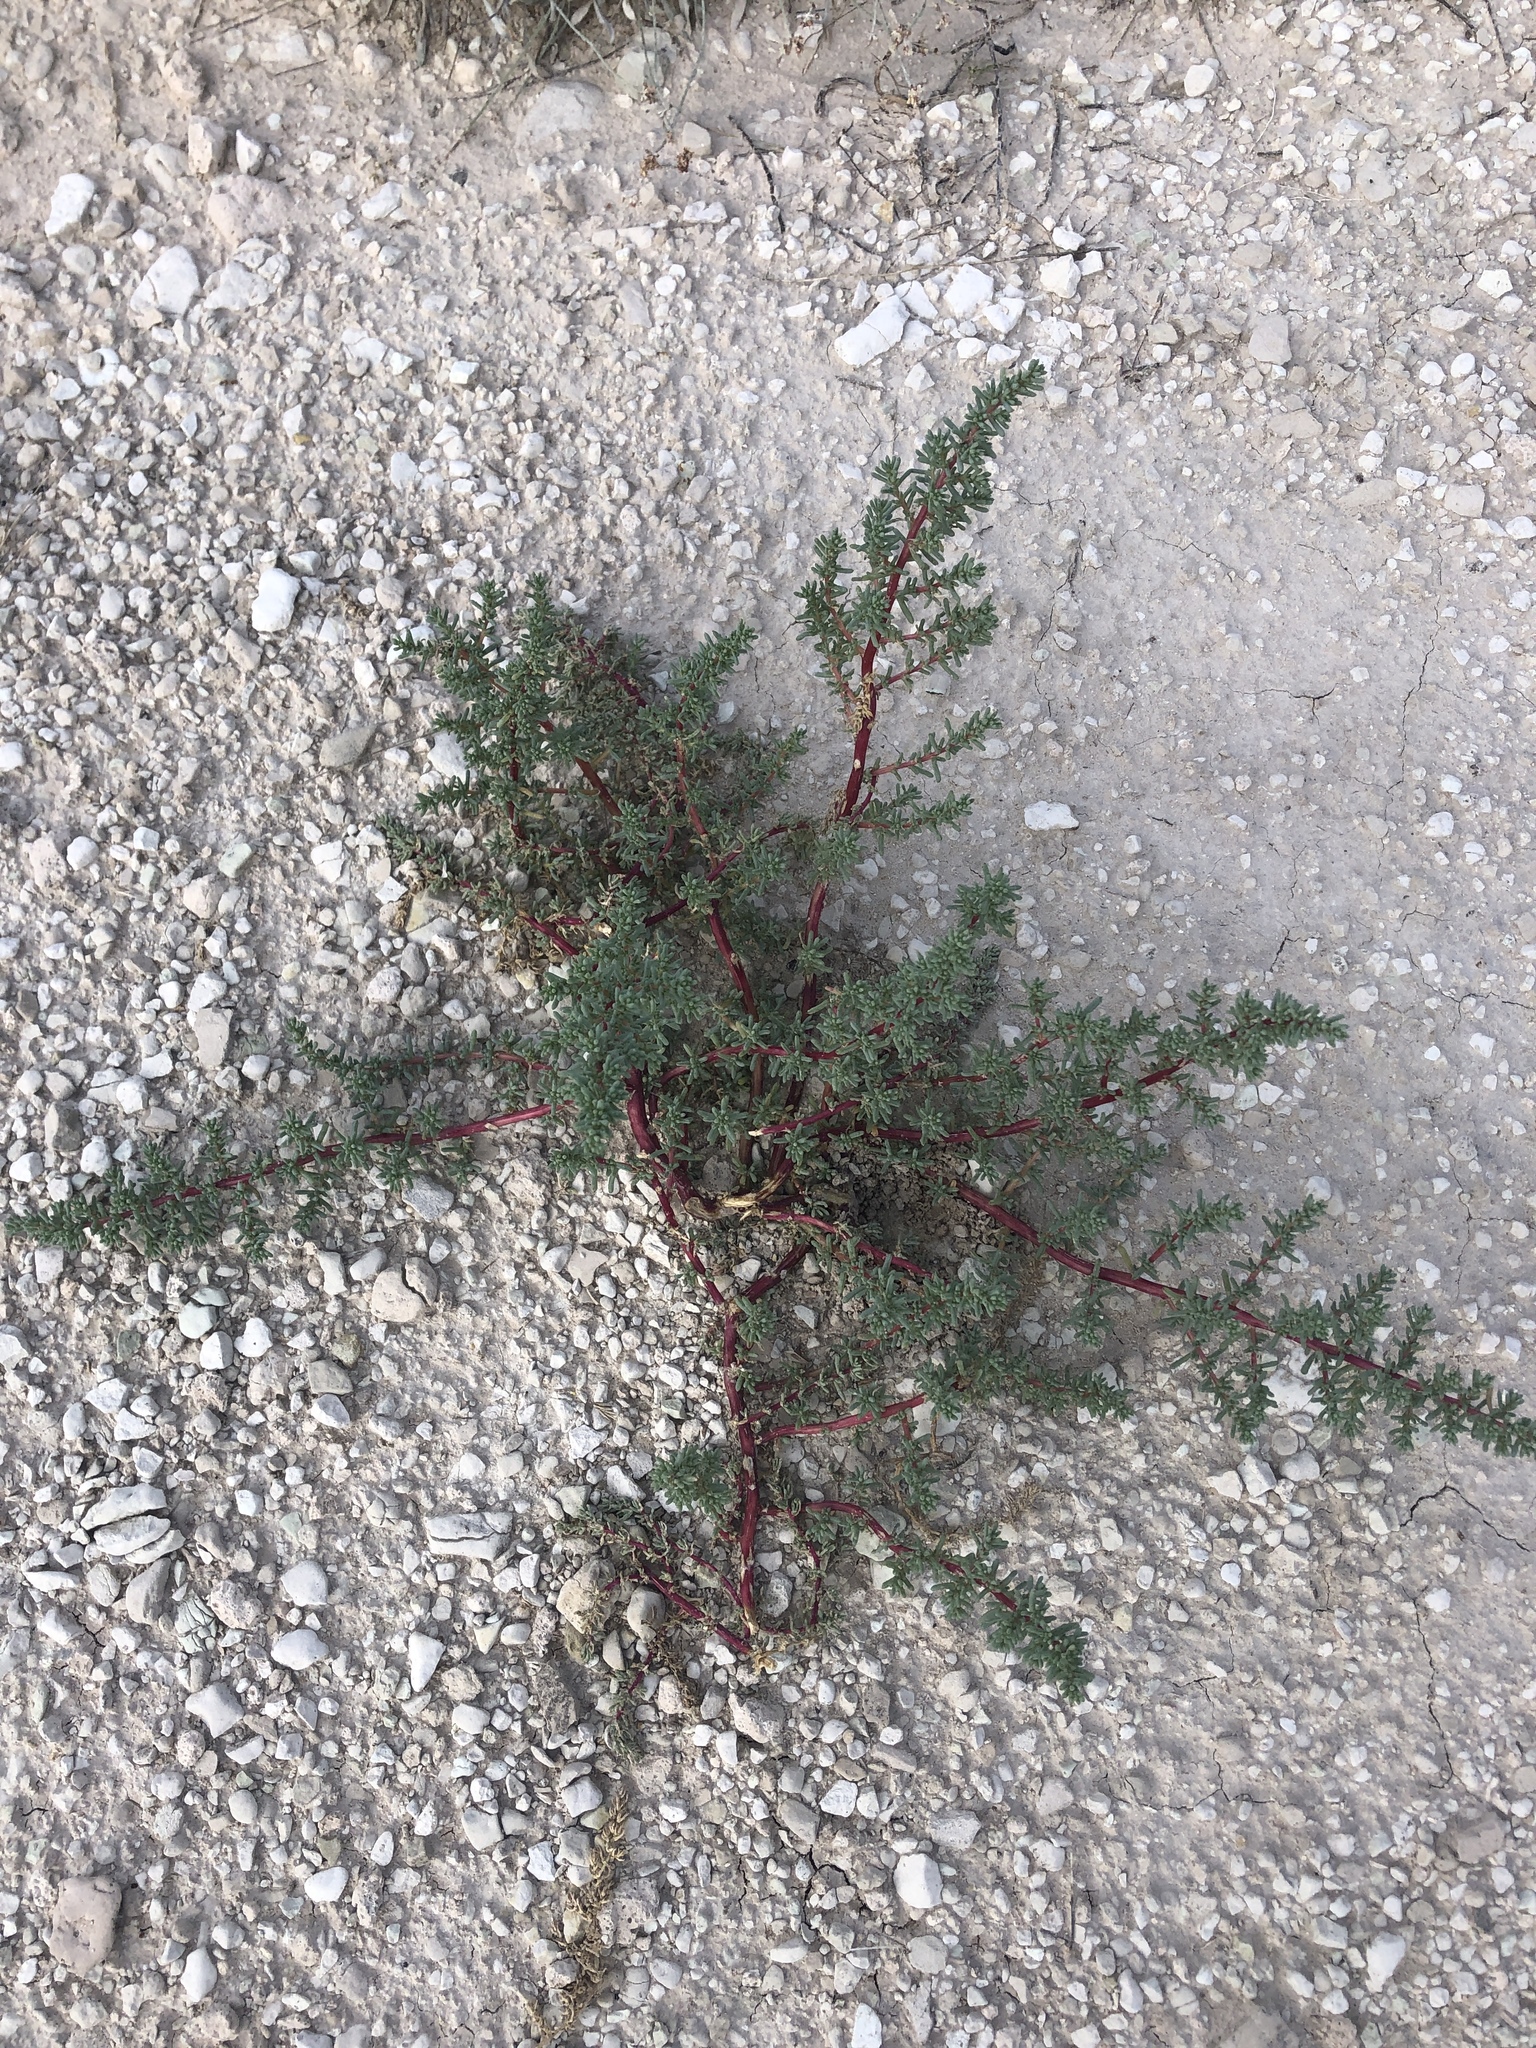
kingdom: Plantae
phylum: Tracheophyta
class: Magnoliopsida
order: Caryophyllales
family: Amaranthaceae
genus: Halogeton
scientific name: Halogeton glomeratus
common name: Saltlover
